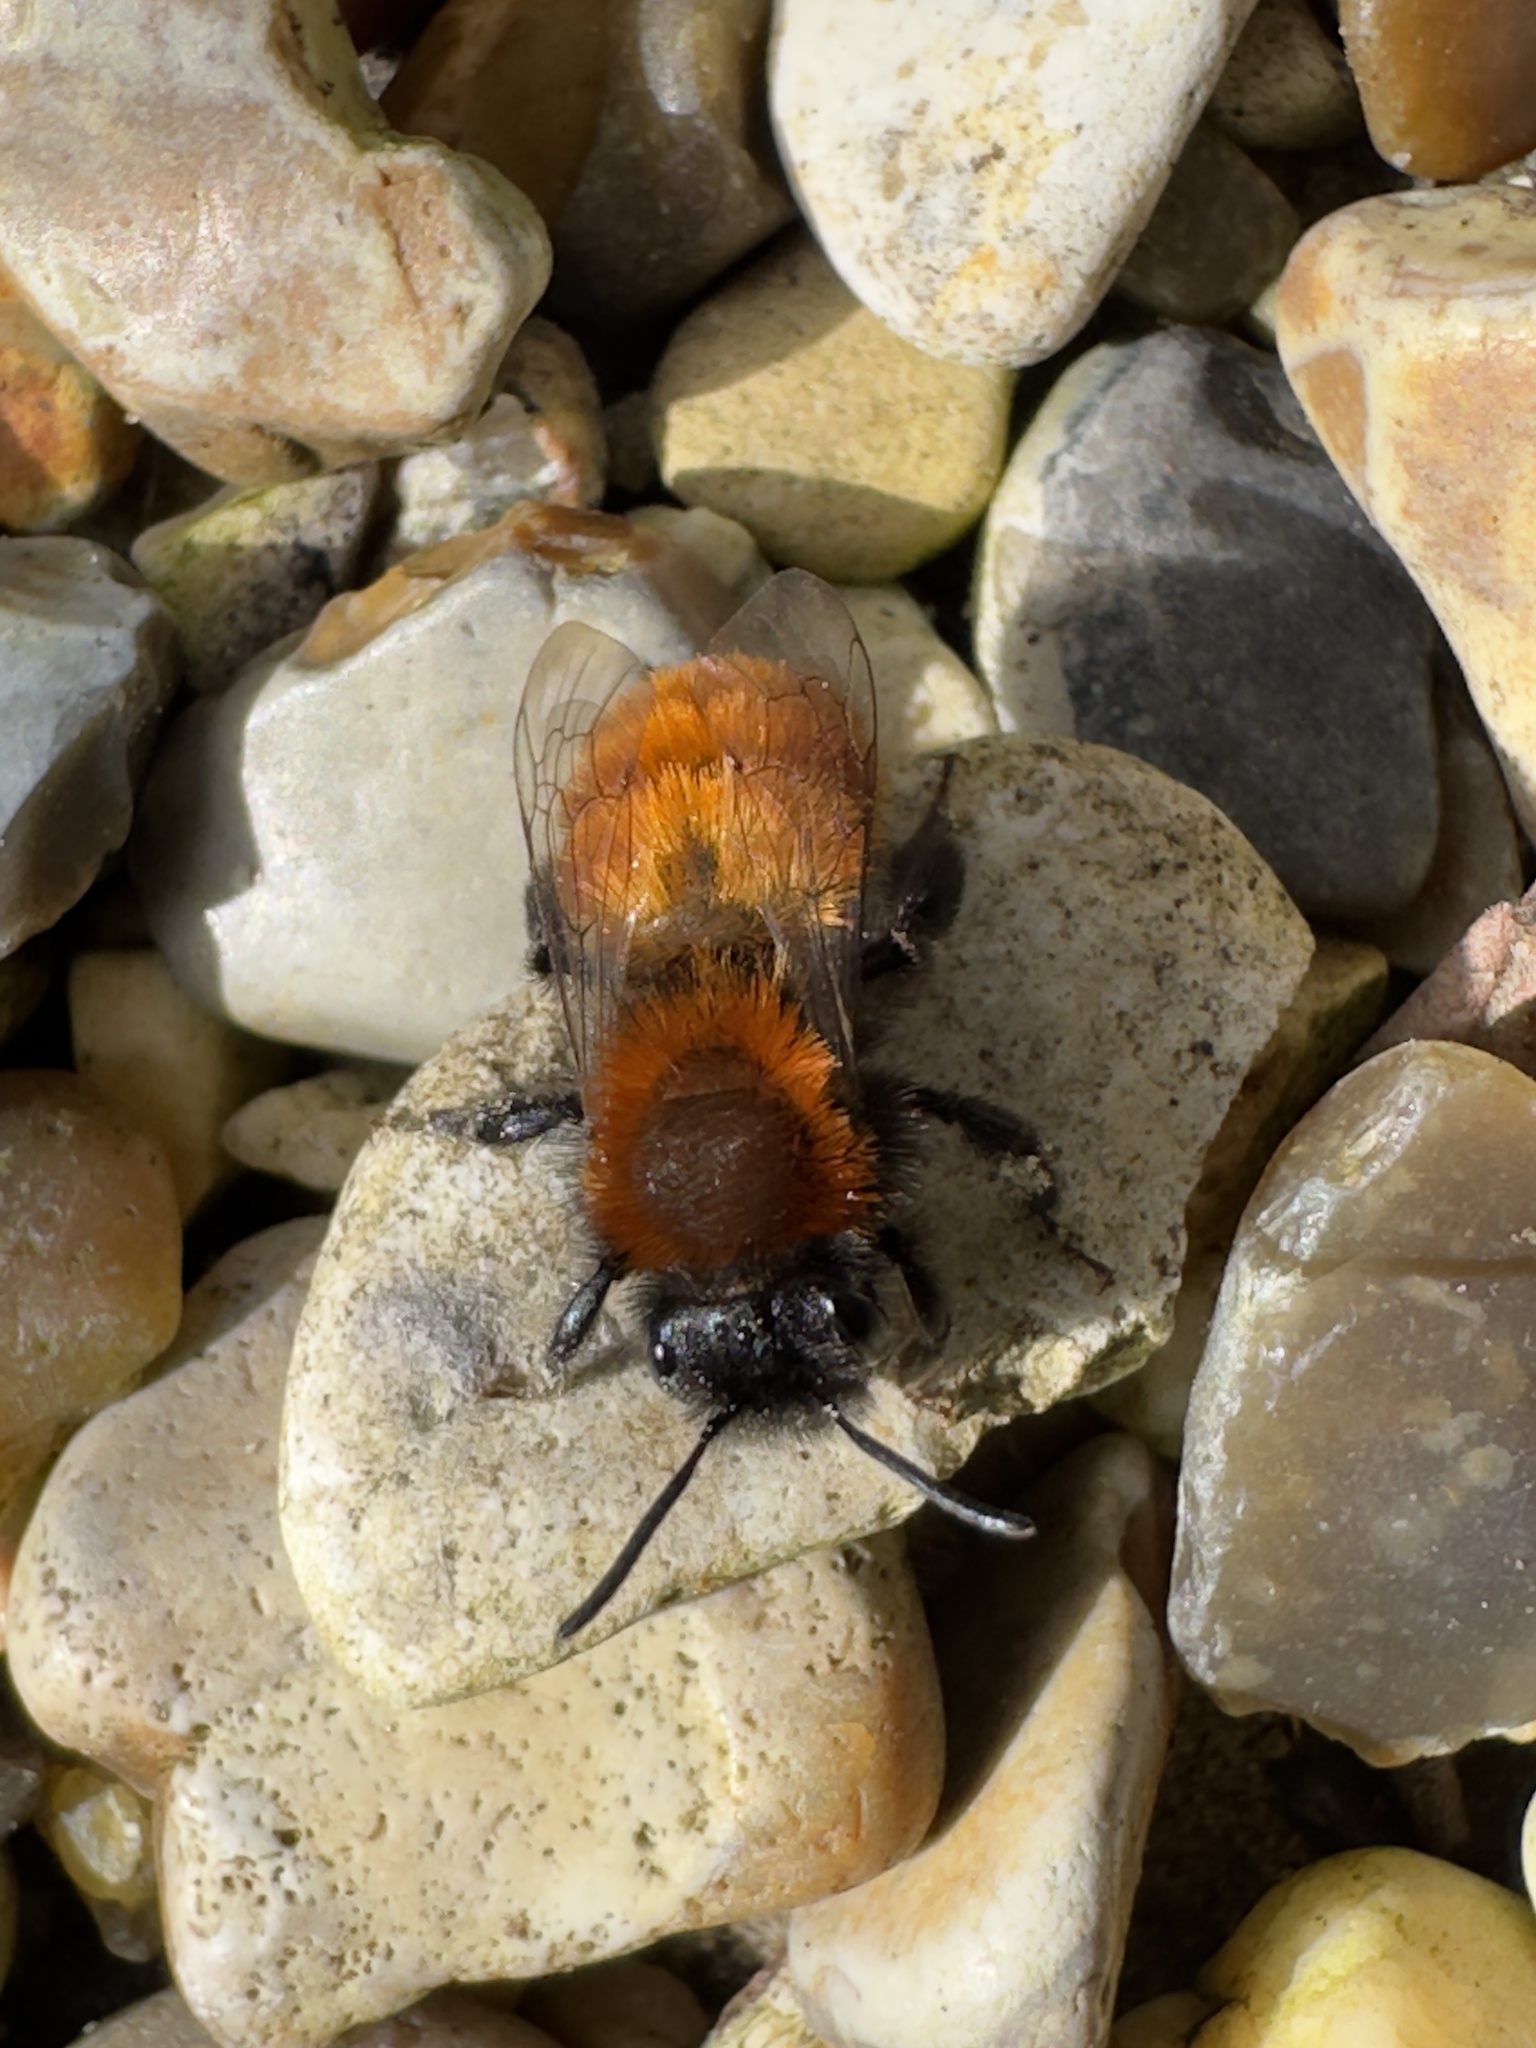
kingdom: Animalia
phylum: Arthropoda
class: Insecta
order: Hymenoptera
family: Andrenidae
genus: Andrena
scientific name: Andrena fulva
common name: Tawny mining bee
